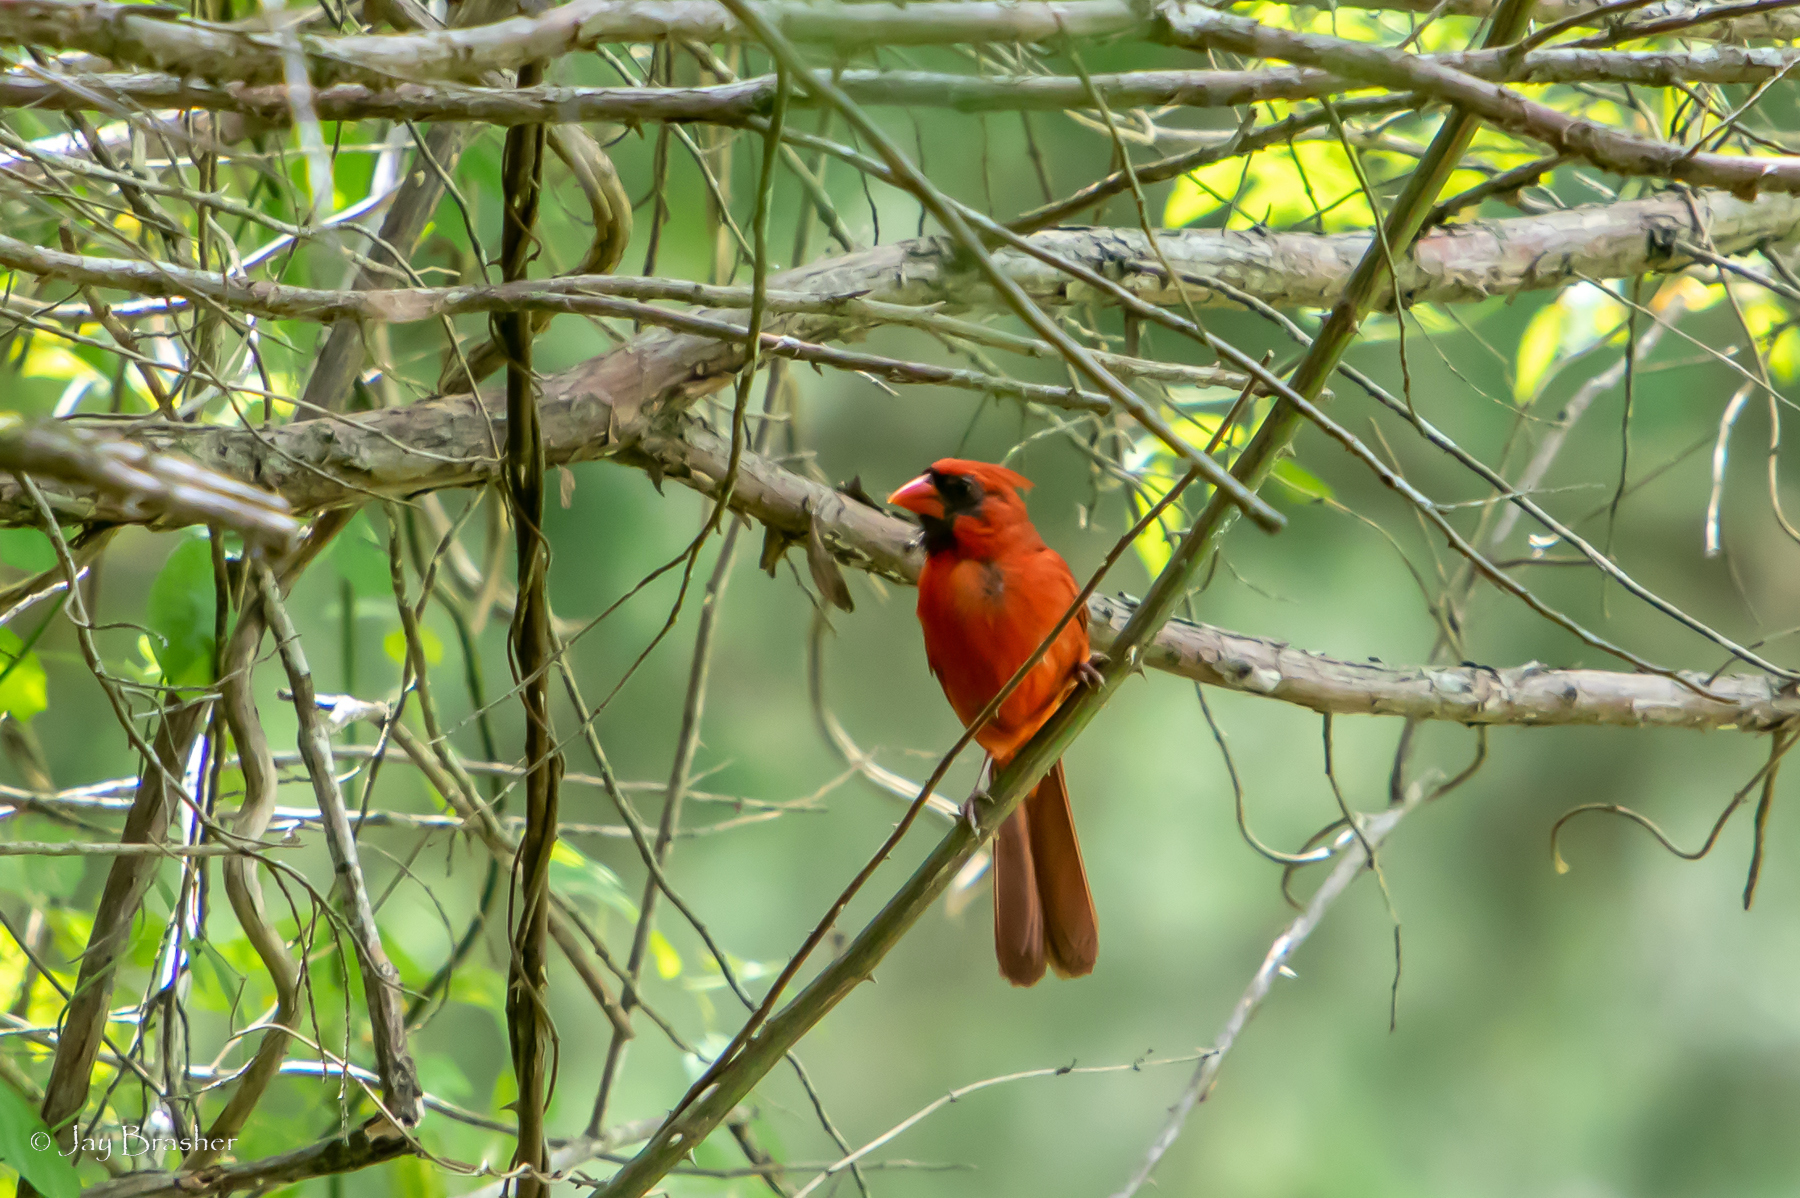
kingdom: Animalia
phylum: Chordata
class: Aves
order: Passeriformes
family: Cardinalidae
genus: Cardinalis
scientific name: Cardinalis cardinalis
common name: Northern cardinal
